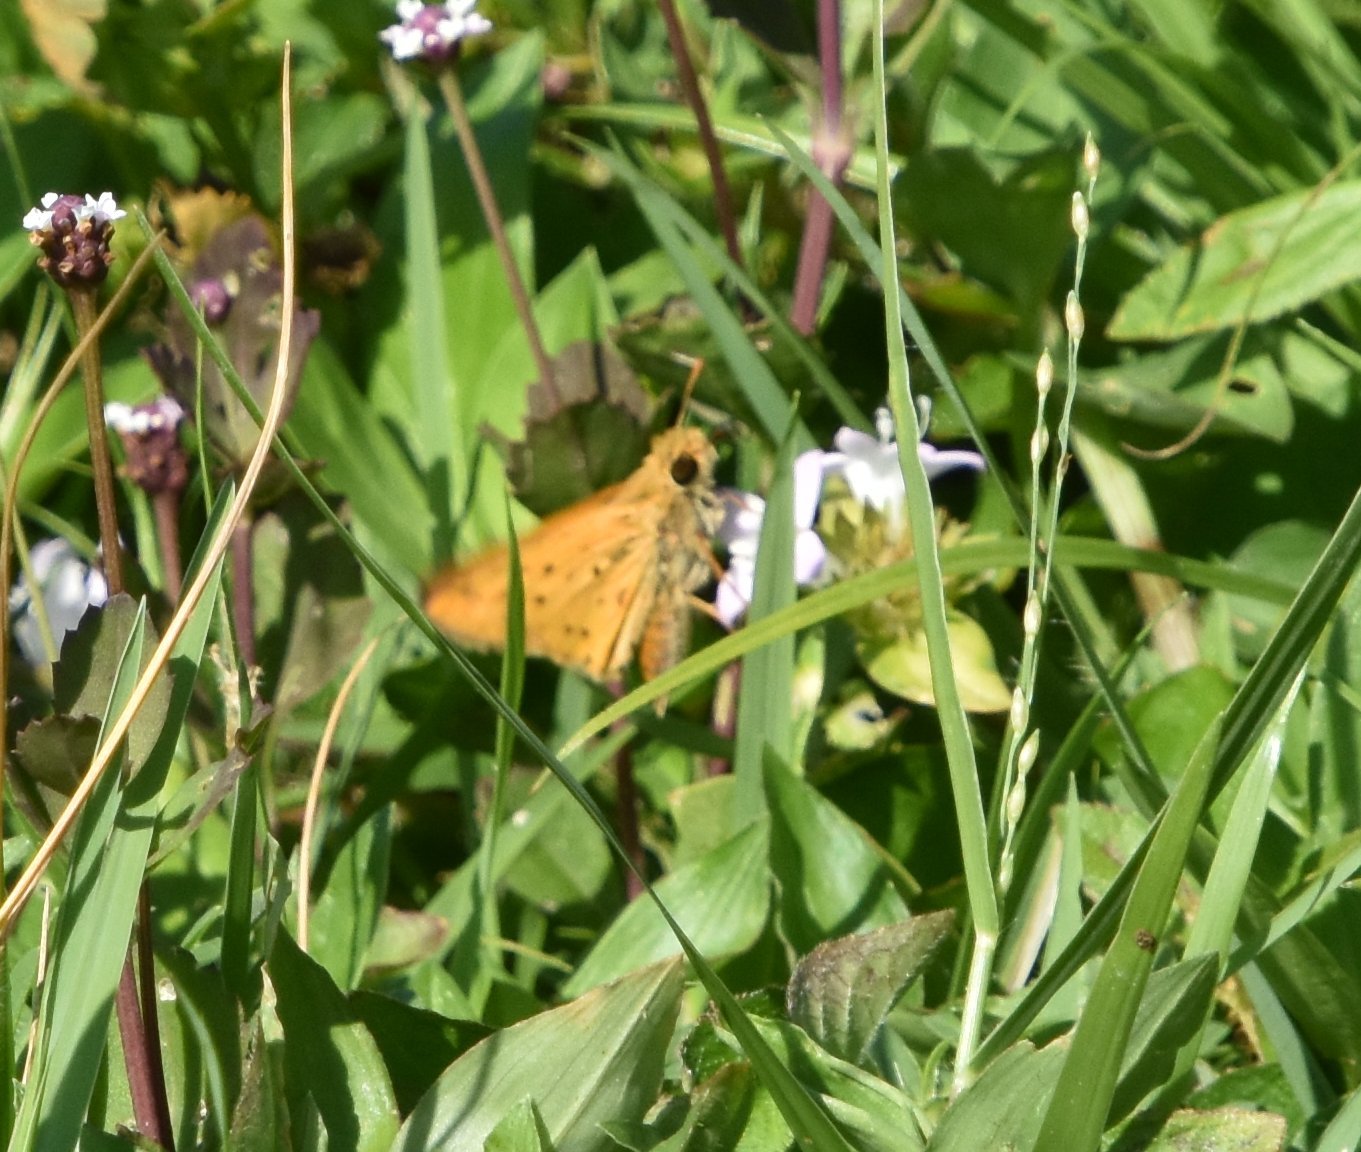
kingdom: Animalia
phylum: Arthropoda
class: Insecta
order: Lepidoptera
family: Hesperiidae
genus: Hylephila
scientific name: Hylephila phyleus
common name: Fiery skipper
